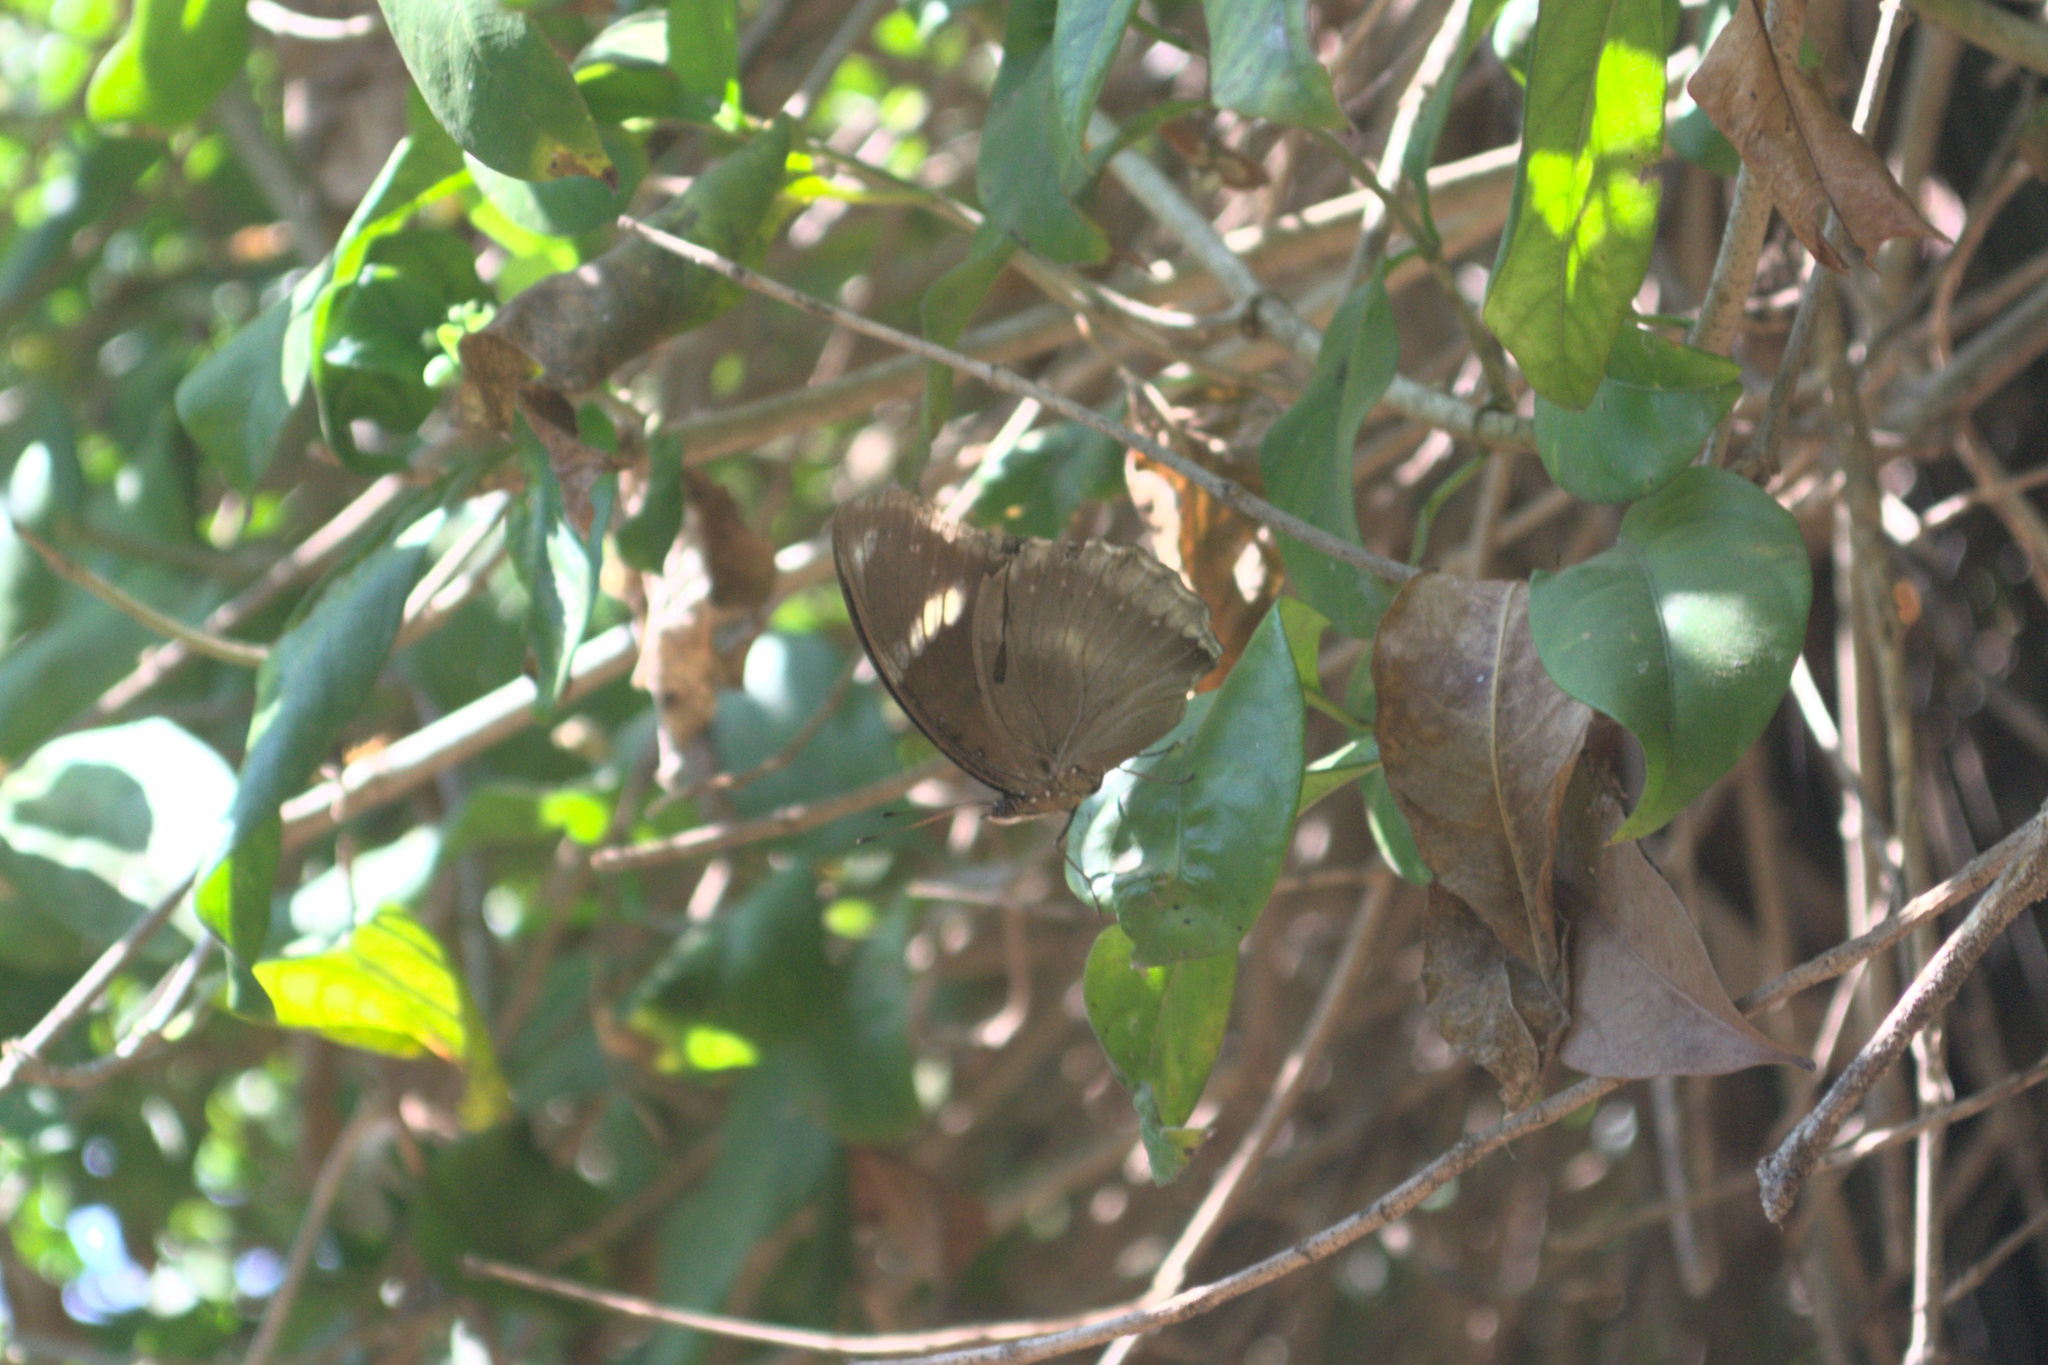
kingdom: Animalia
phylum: Arthropoda
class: Insecta
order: Lepidoptera
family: Nymphalidae
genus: Hypolimnas
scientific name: Hypolimnas bolina
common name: Great eggfly
